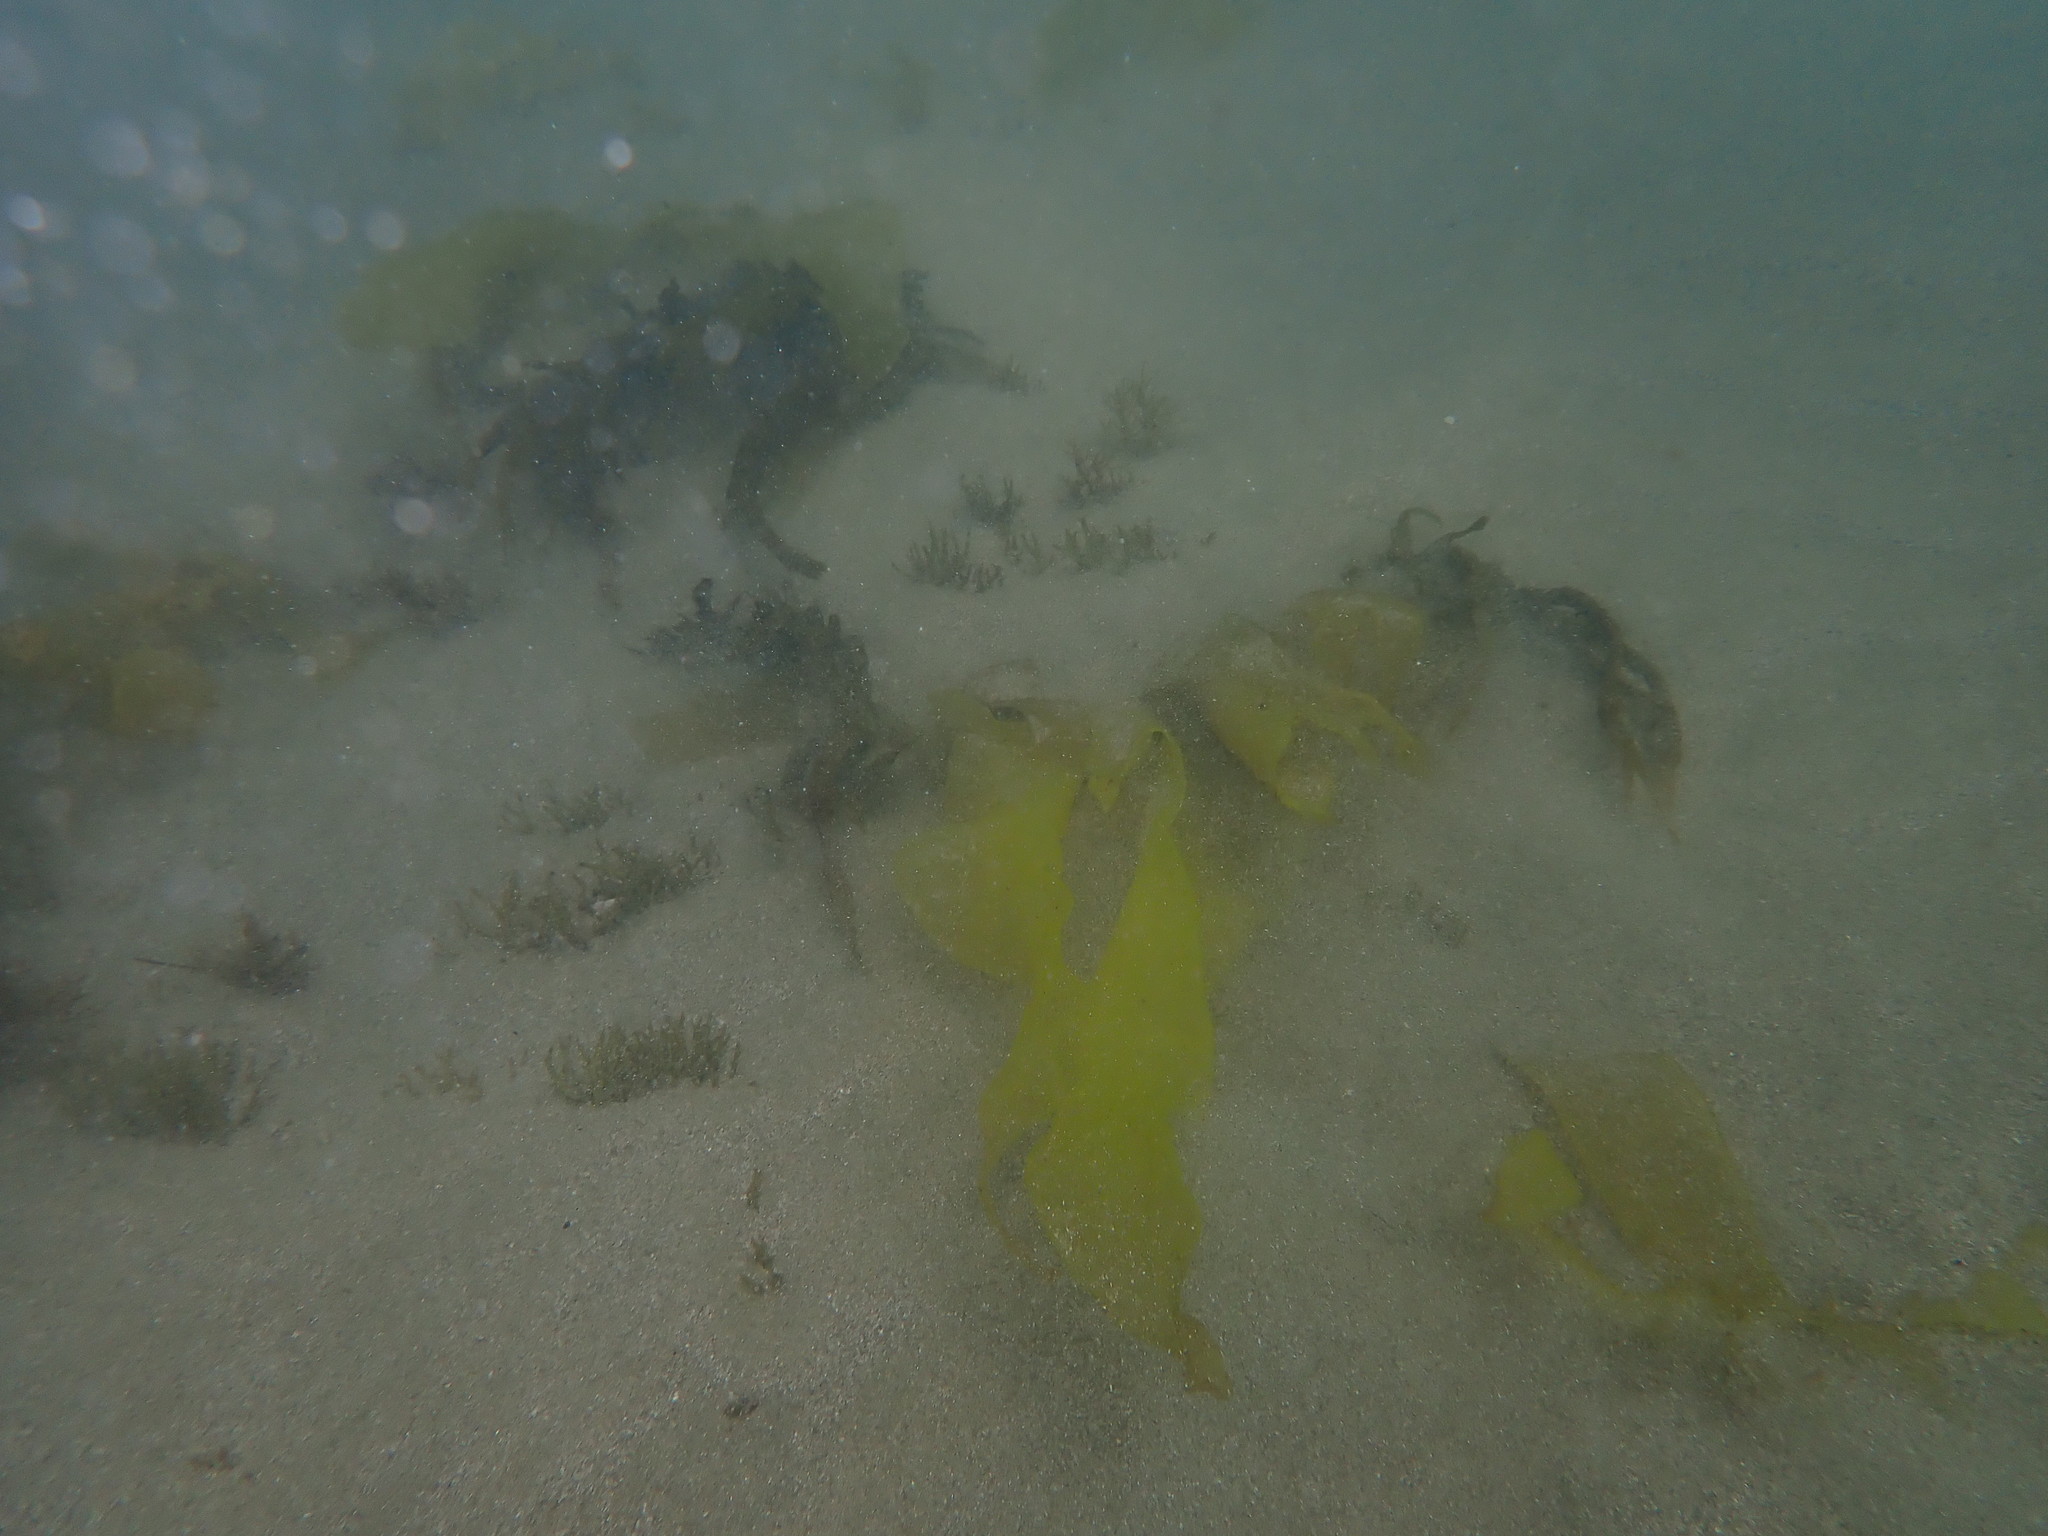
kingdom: Plantae
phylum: Rhodophyta
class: Florideophyceae
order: Gigartinales
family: Gigartinaceae
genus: Sarcothalia
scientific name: Sarcothalia
